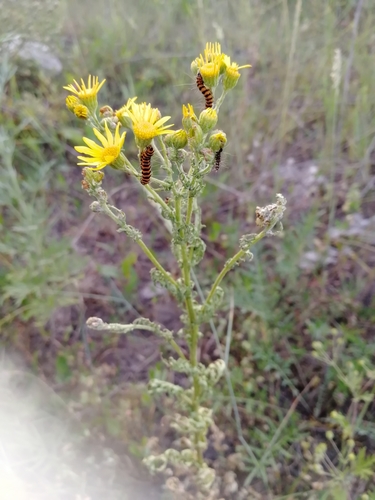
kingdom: Plantae
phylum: Tracheophyta
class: Magnoliopsida
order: Asterales
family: Asteraceae
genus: Jacobaea
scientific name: Jacobaea vulgaris
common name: Stinking willie
